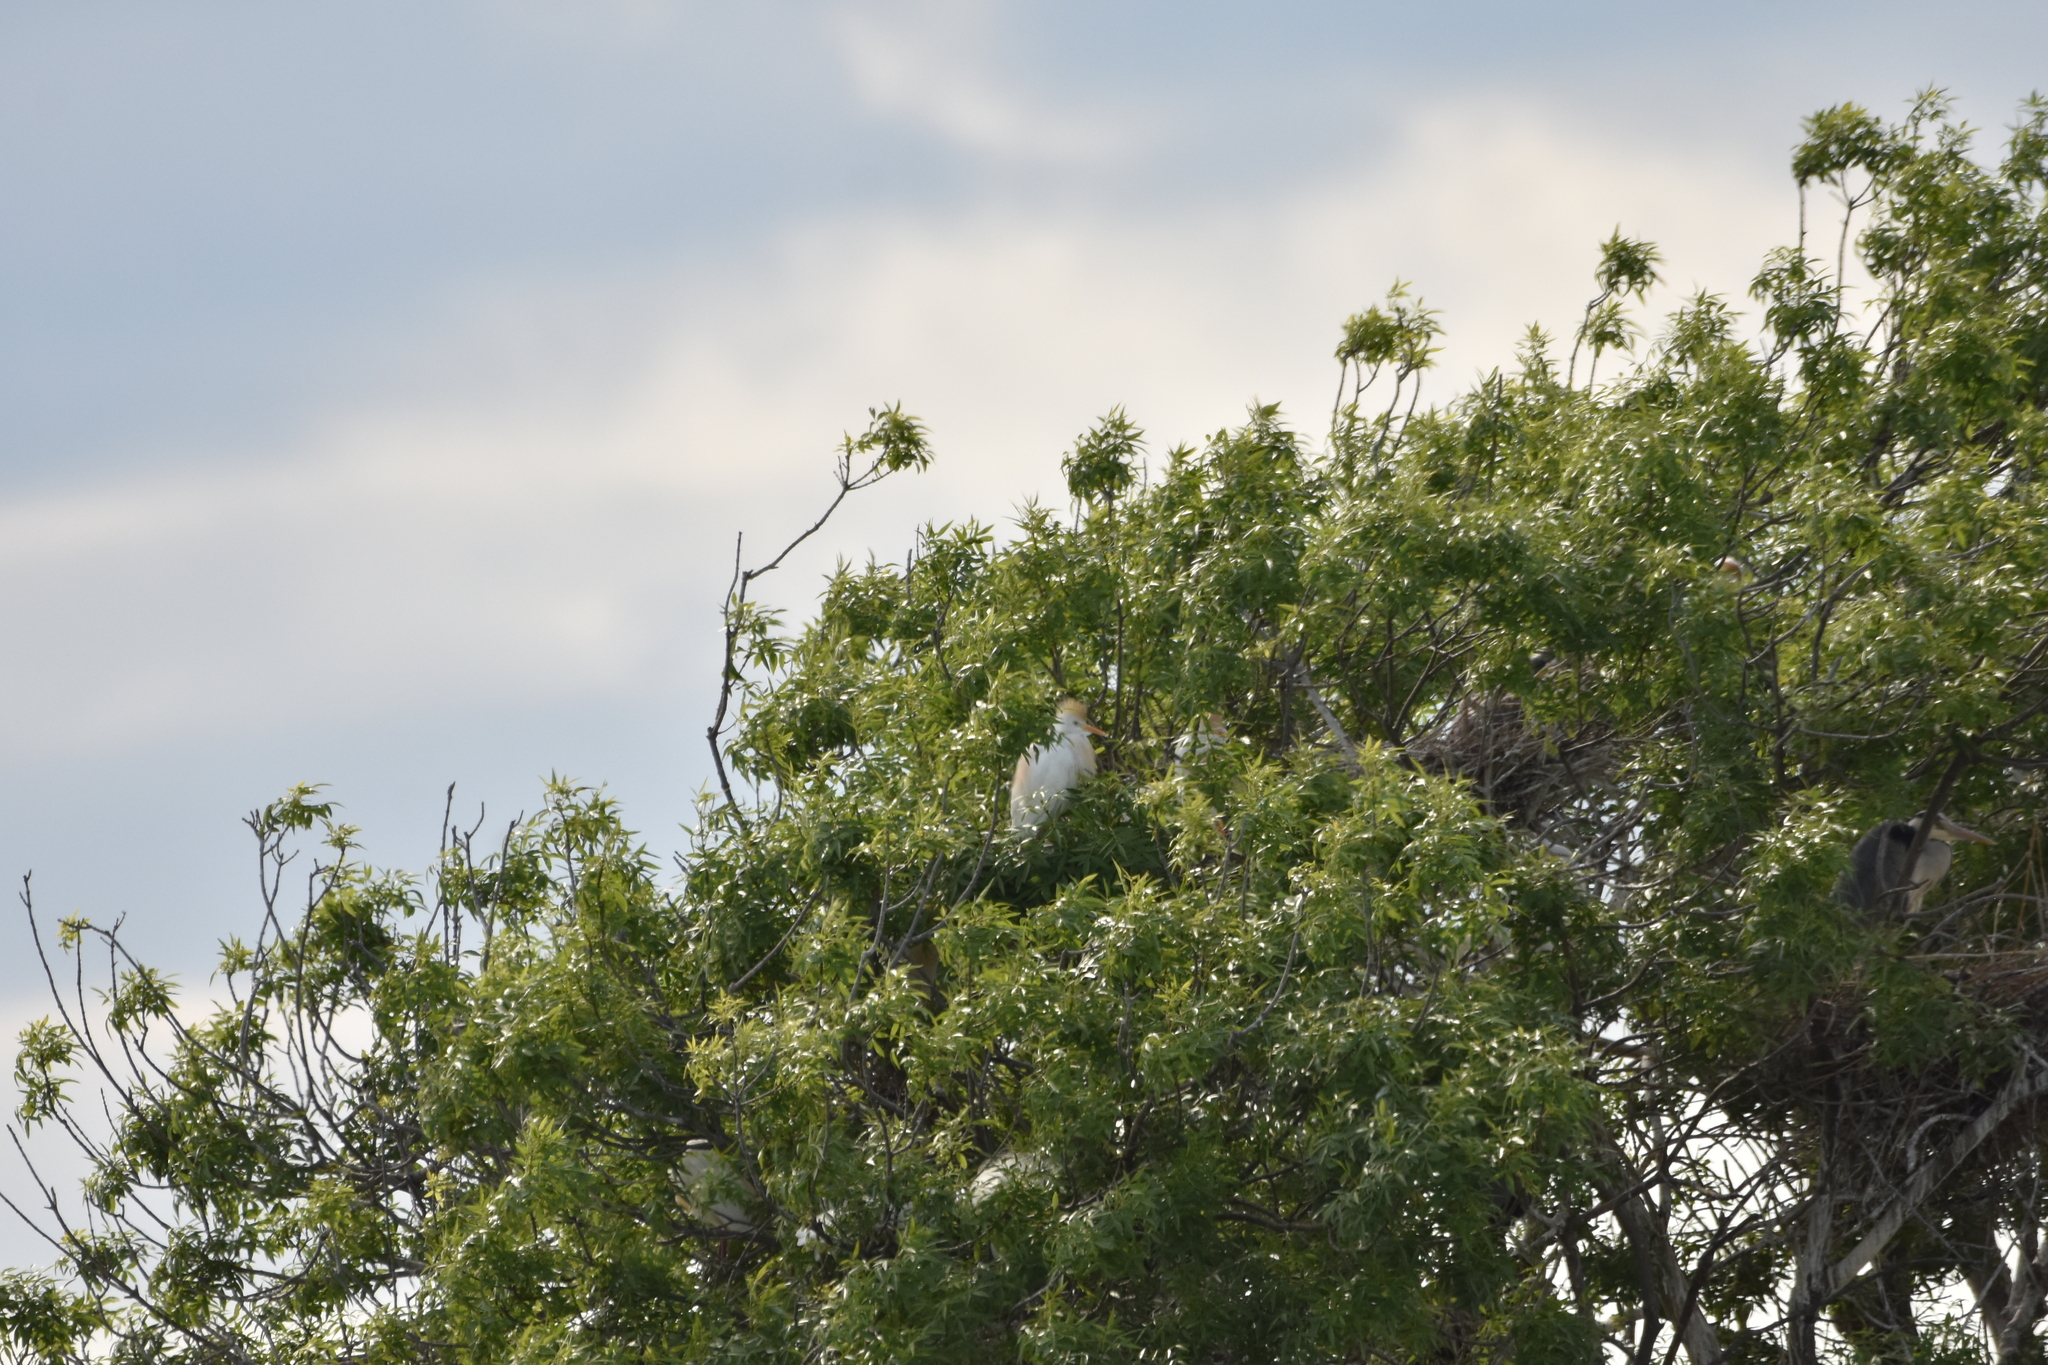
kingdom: Animalia
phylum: Chordata
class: Aves
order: Pelecaniformes
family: Ardeidae
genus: Bubulcus
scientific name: Bubulcus ibis
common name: Cattle egret
